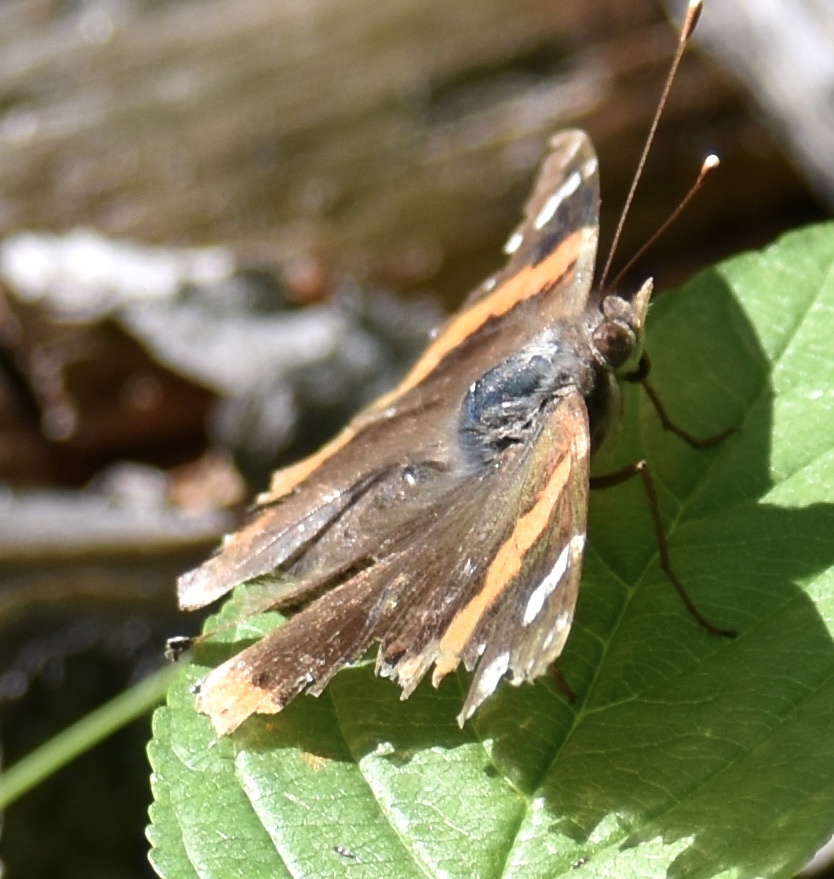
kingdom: Animalia
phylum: Arthropoda
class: Insecta
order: Lepidoptera
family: Nymphalidae
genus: Vanessa
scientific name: Vanessa atalanta
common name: Red admiral
